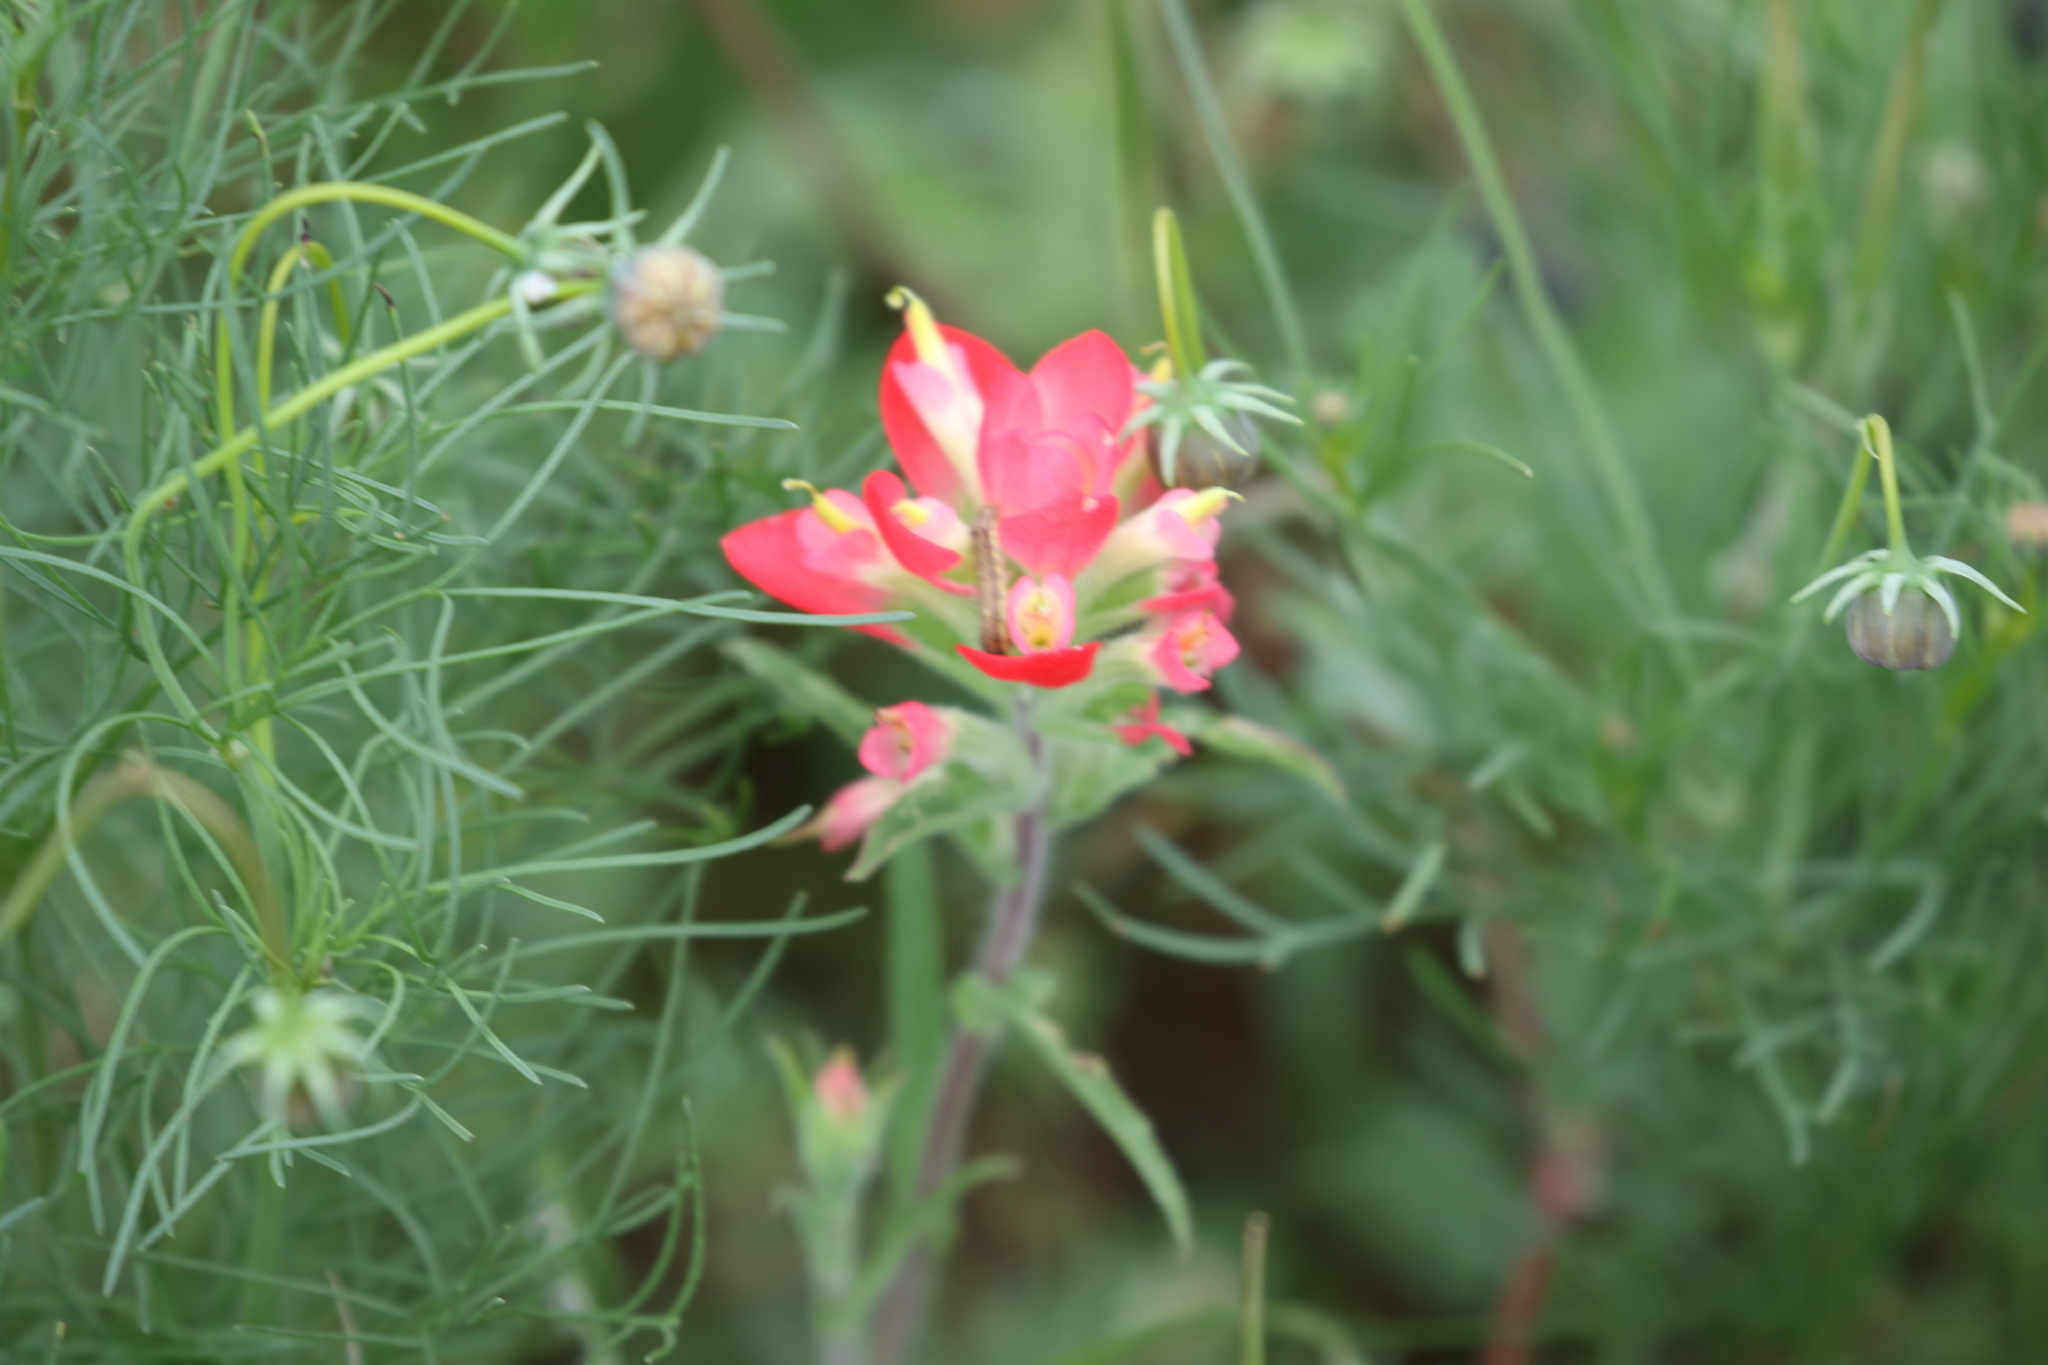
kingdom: Plantae
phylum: Tracheophyta
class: Magnoliopsida
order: Lamiales
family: Orobanchaceae
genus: Castilleja
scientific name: Castilleja indivisa
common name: Texas paintbrush
